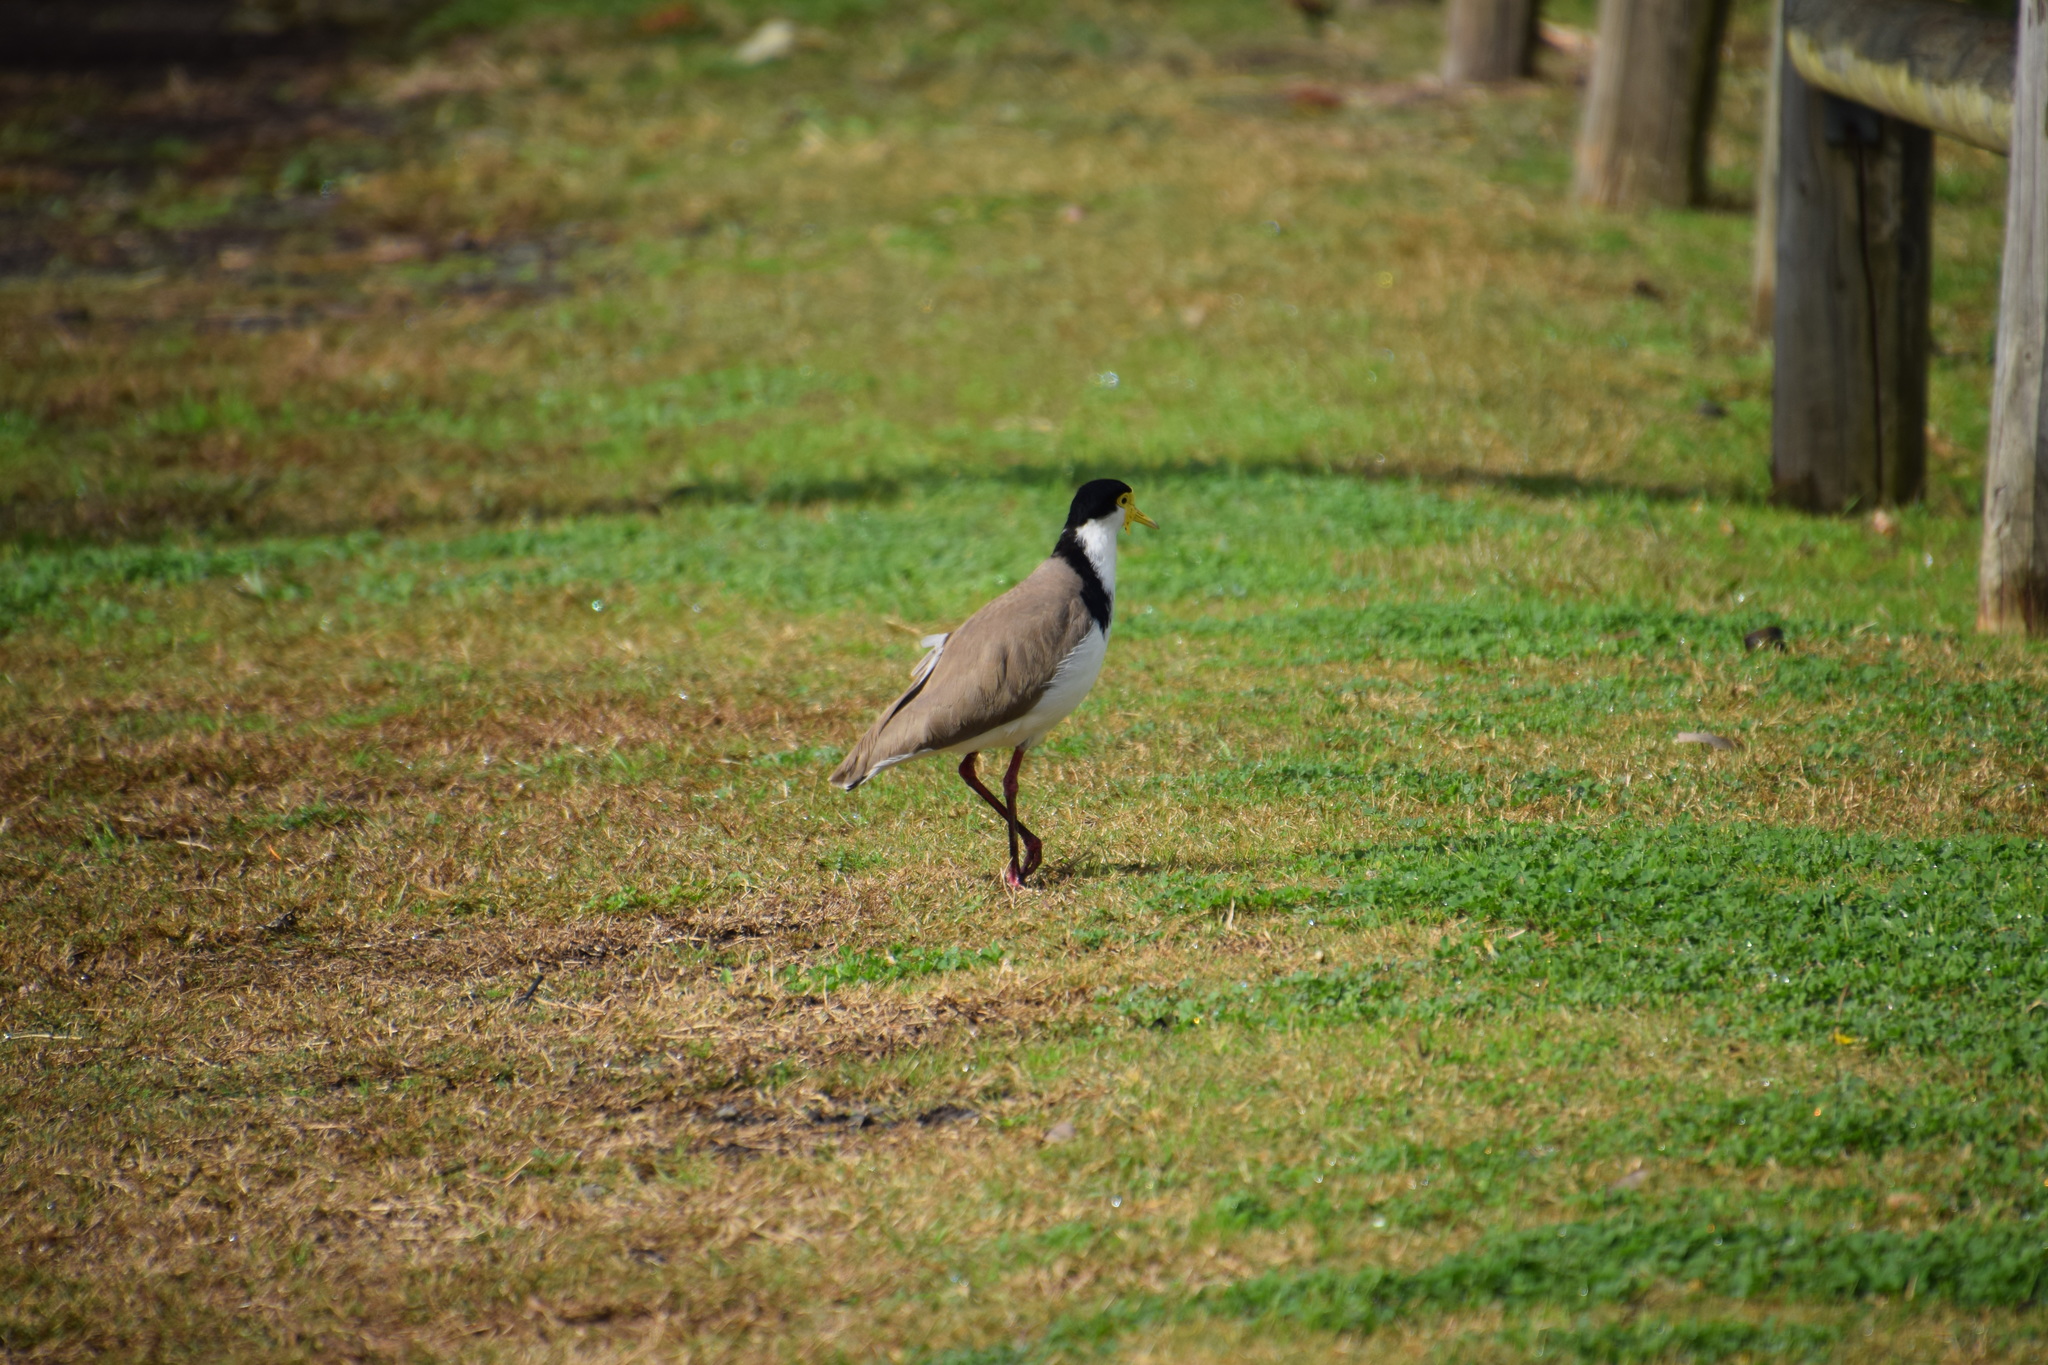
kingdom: Animalia
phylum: Chordata
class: Aves
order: Charadriiformes
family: Charadriidae
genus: Vanellus
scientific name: Vanellus miles
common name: Masked lapwing
